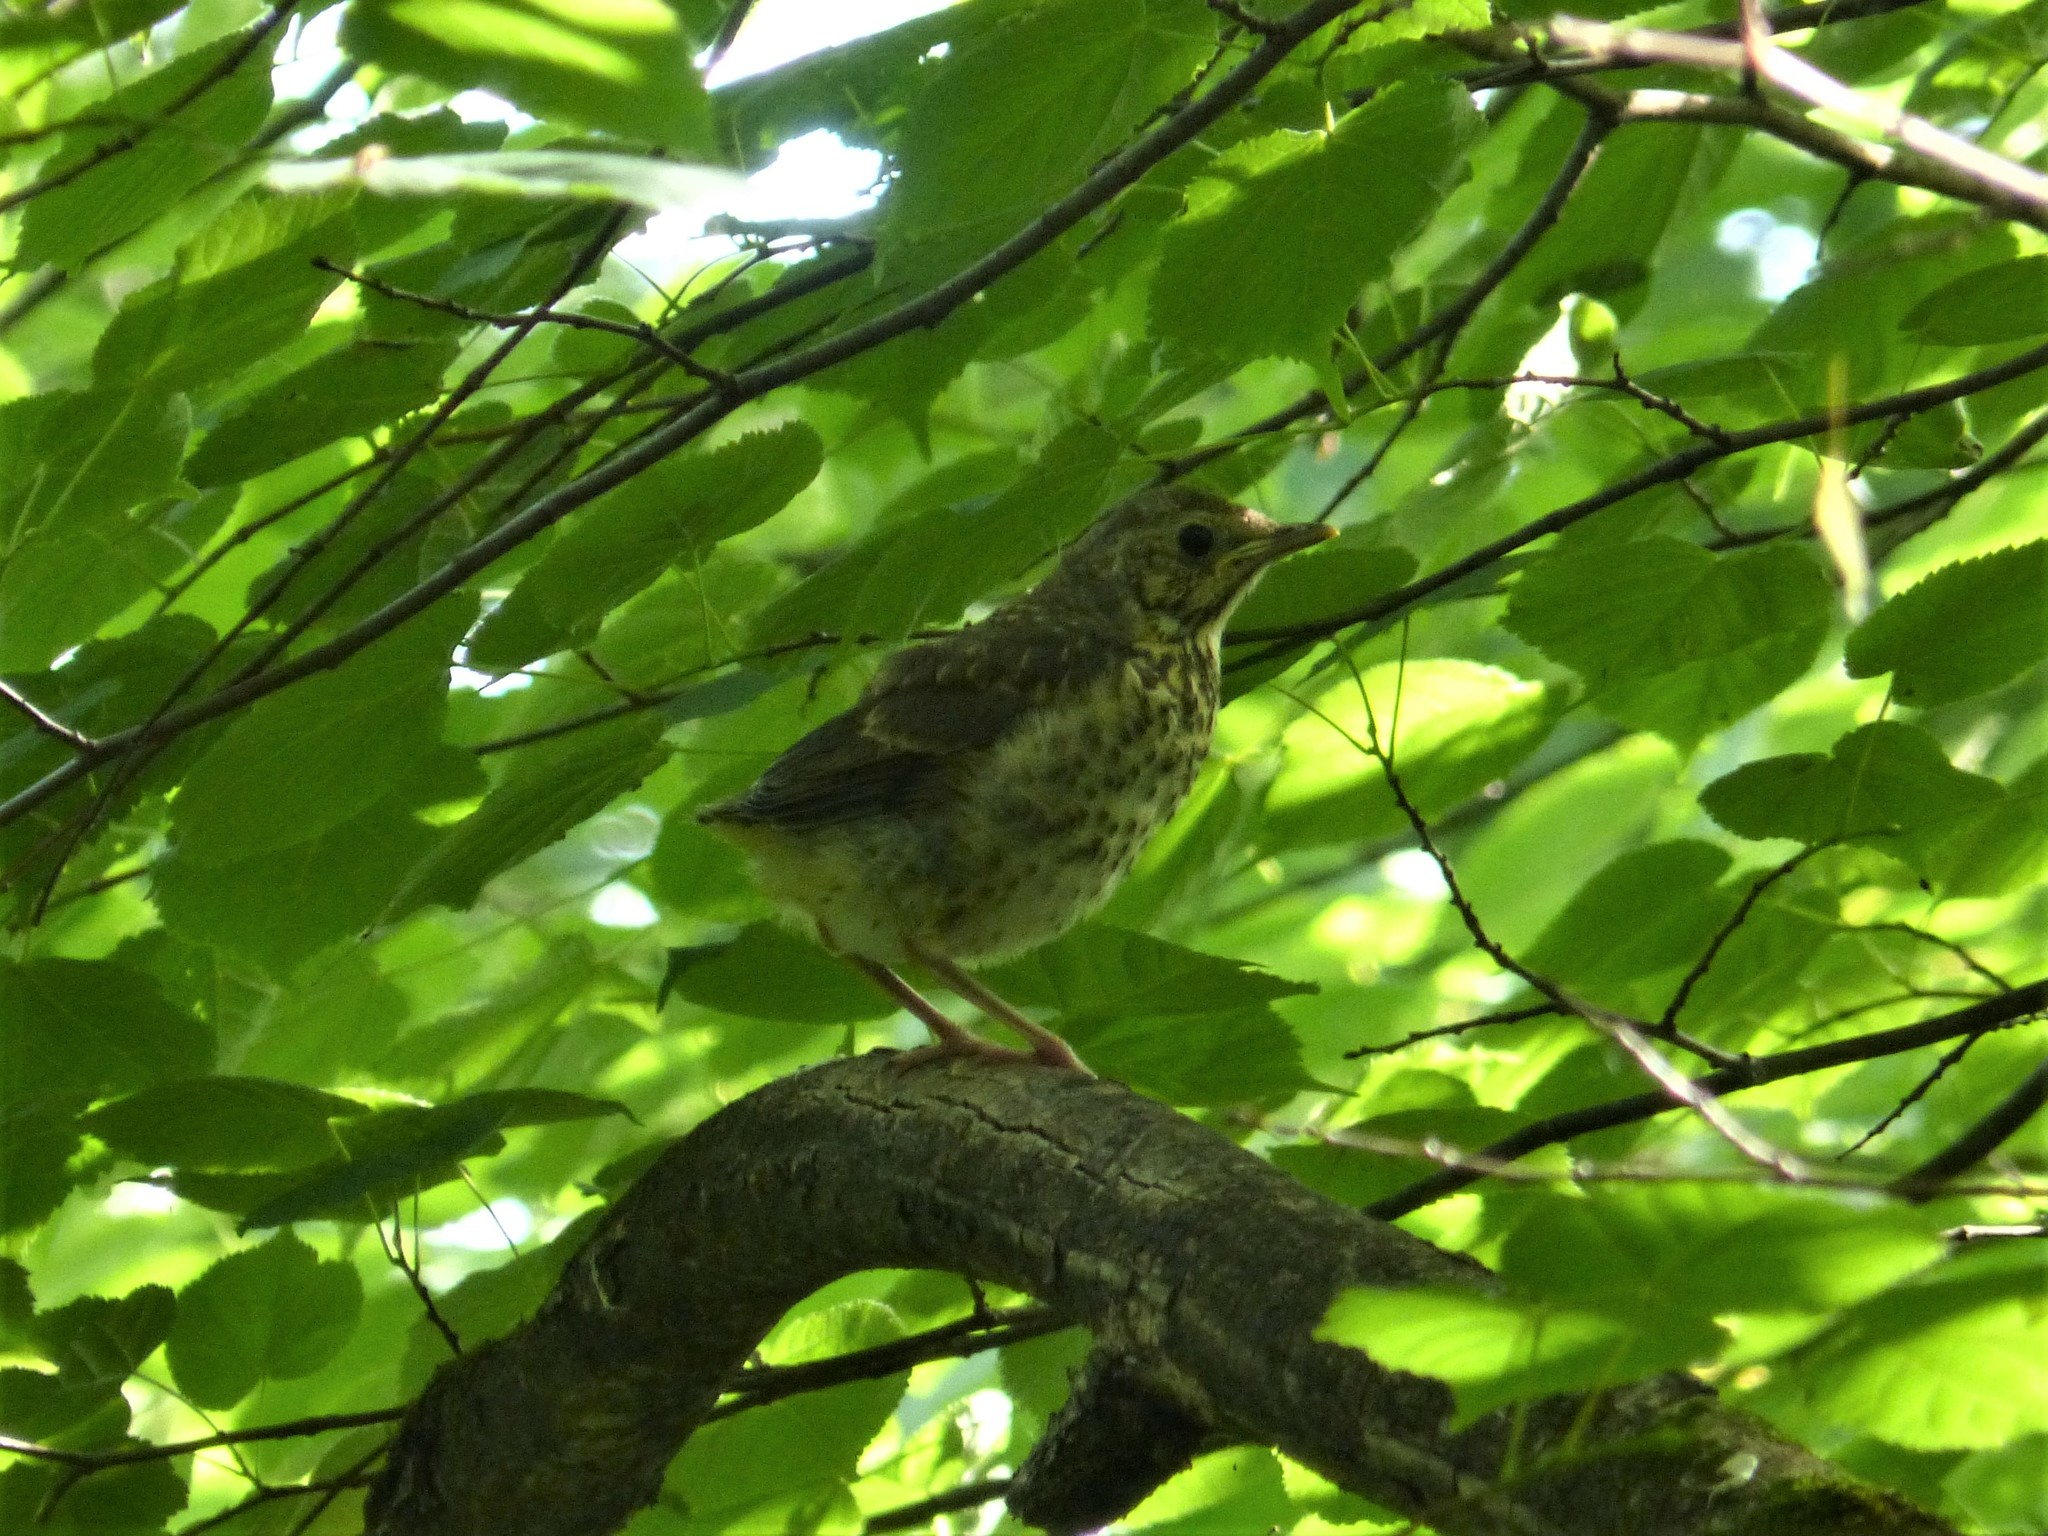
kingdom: Animalia
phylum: Chordata
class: Aves
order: Passeriformes
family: Turdidae
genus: Turdus
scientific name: Turdus philomelos
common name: Song thrush
